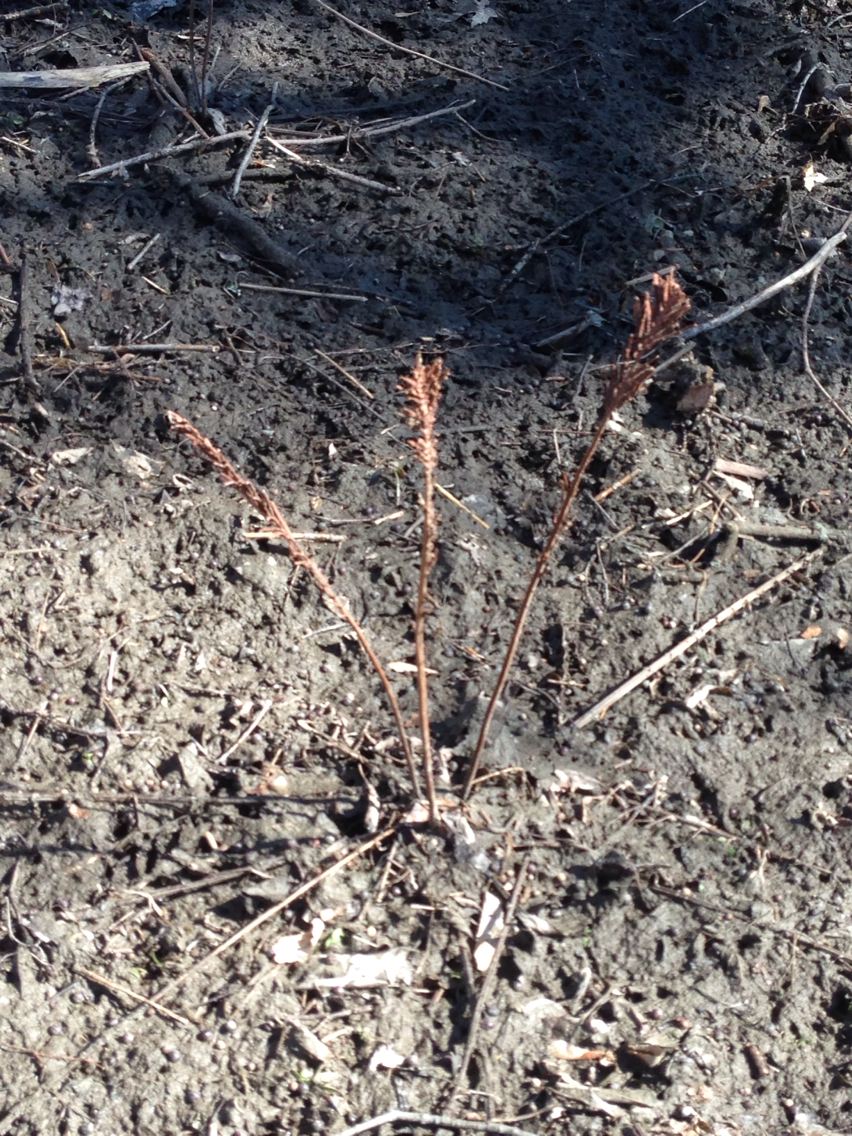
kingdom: Plantae
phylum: Tracheophyta
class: Polypodiopsida
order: Polypodiales
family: Onocleaceae
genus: Matteuccia
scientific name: Matteuccia struthiopteris
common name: Ostrich fern
